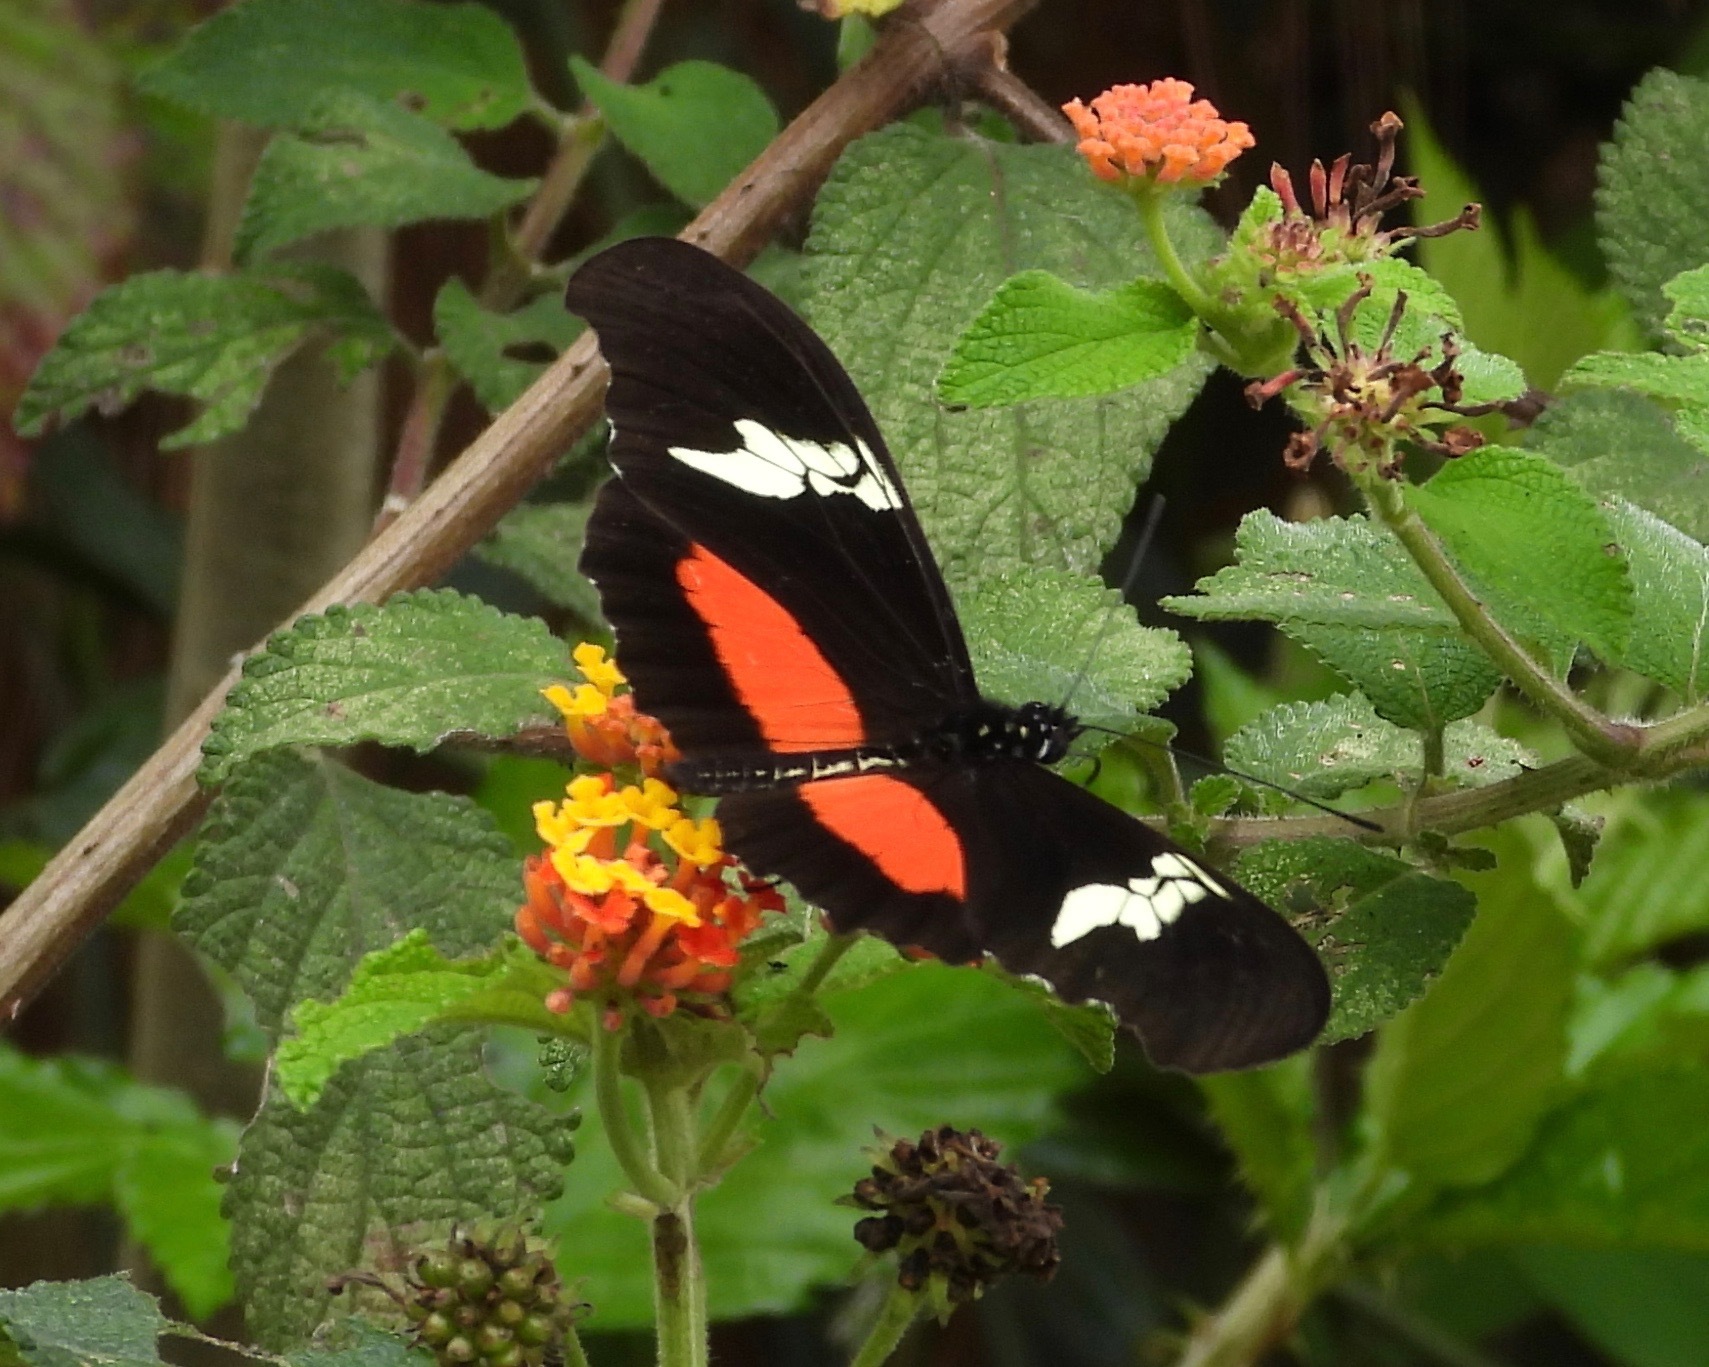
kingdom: Animalia
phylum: Arthropoda
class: Insecta
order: Lepidoptera
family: Nymphalidae
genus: Heliconius
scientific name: Heliconius hortense
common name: Mexican longwing
